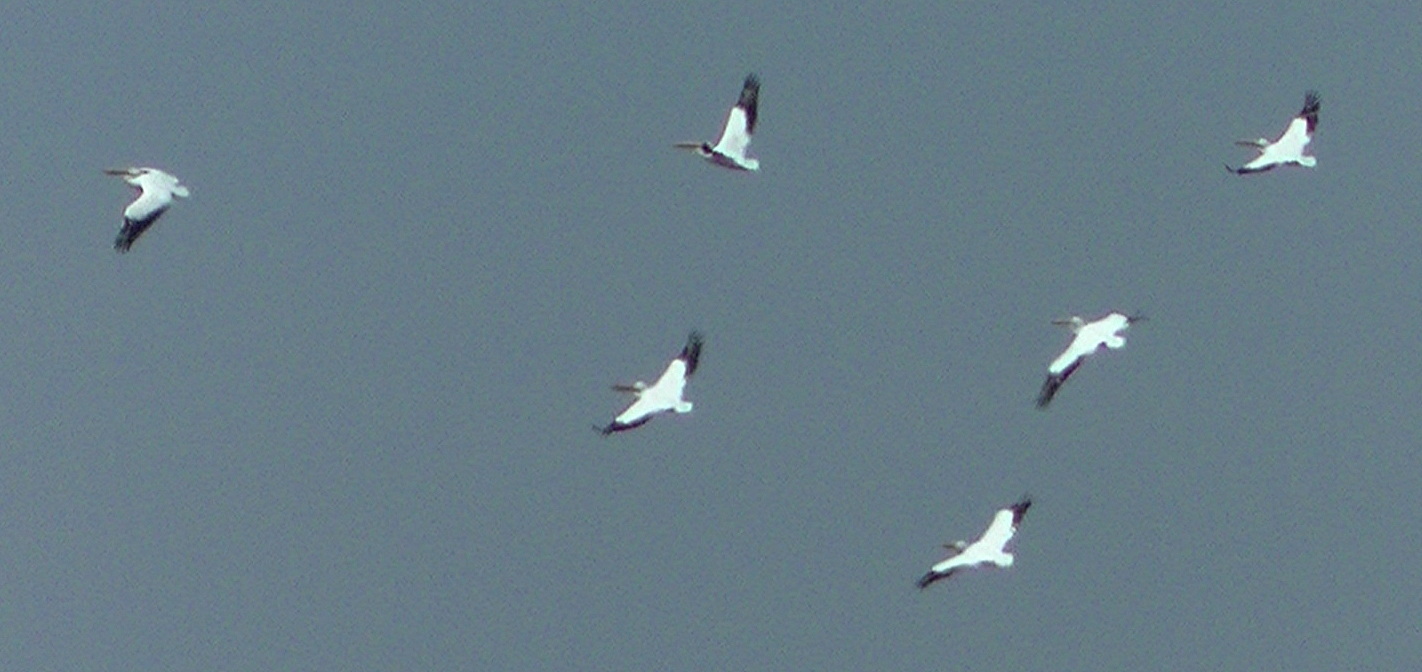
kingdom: Animalia
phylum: Chordata
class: Aves
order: Pelecaniformes
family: Pelecanidae
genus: Pelecanus
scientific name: Pelecanus erythrorhynchos
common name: American white pelican
